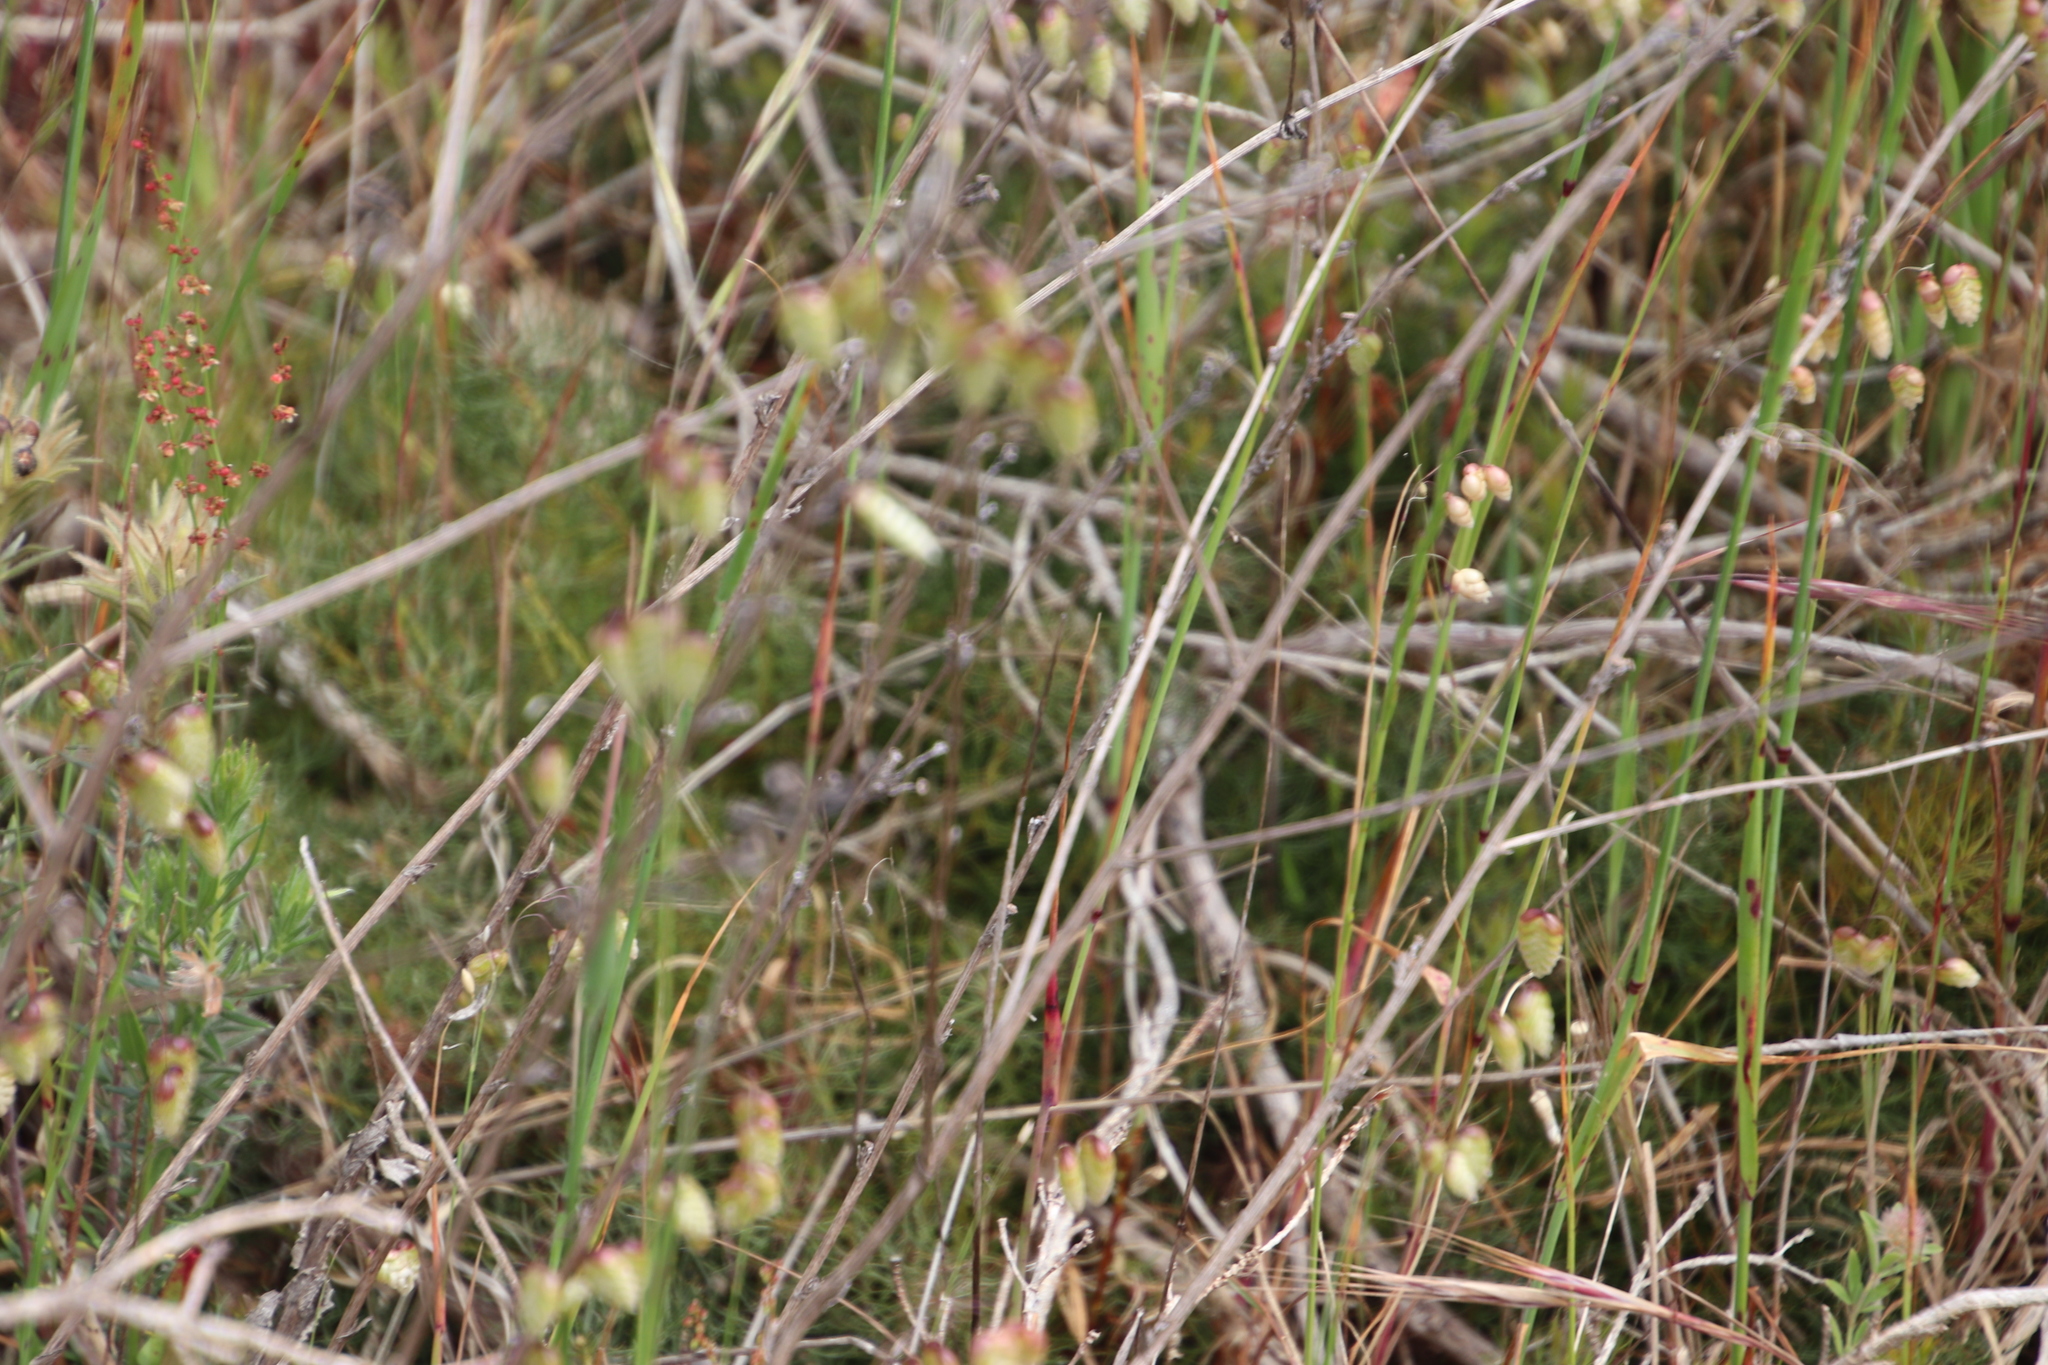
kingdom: Plantae
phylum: Tracheophyta
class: Magnoliopsida
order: Proteales
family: Proteaceae
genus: Serruria
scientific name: Serruria cyanoides
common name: Wynberg spiderhead
